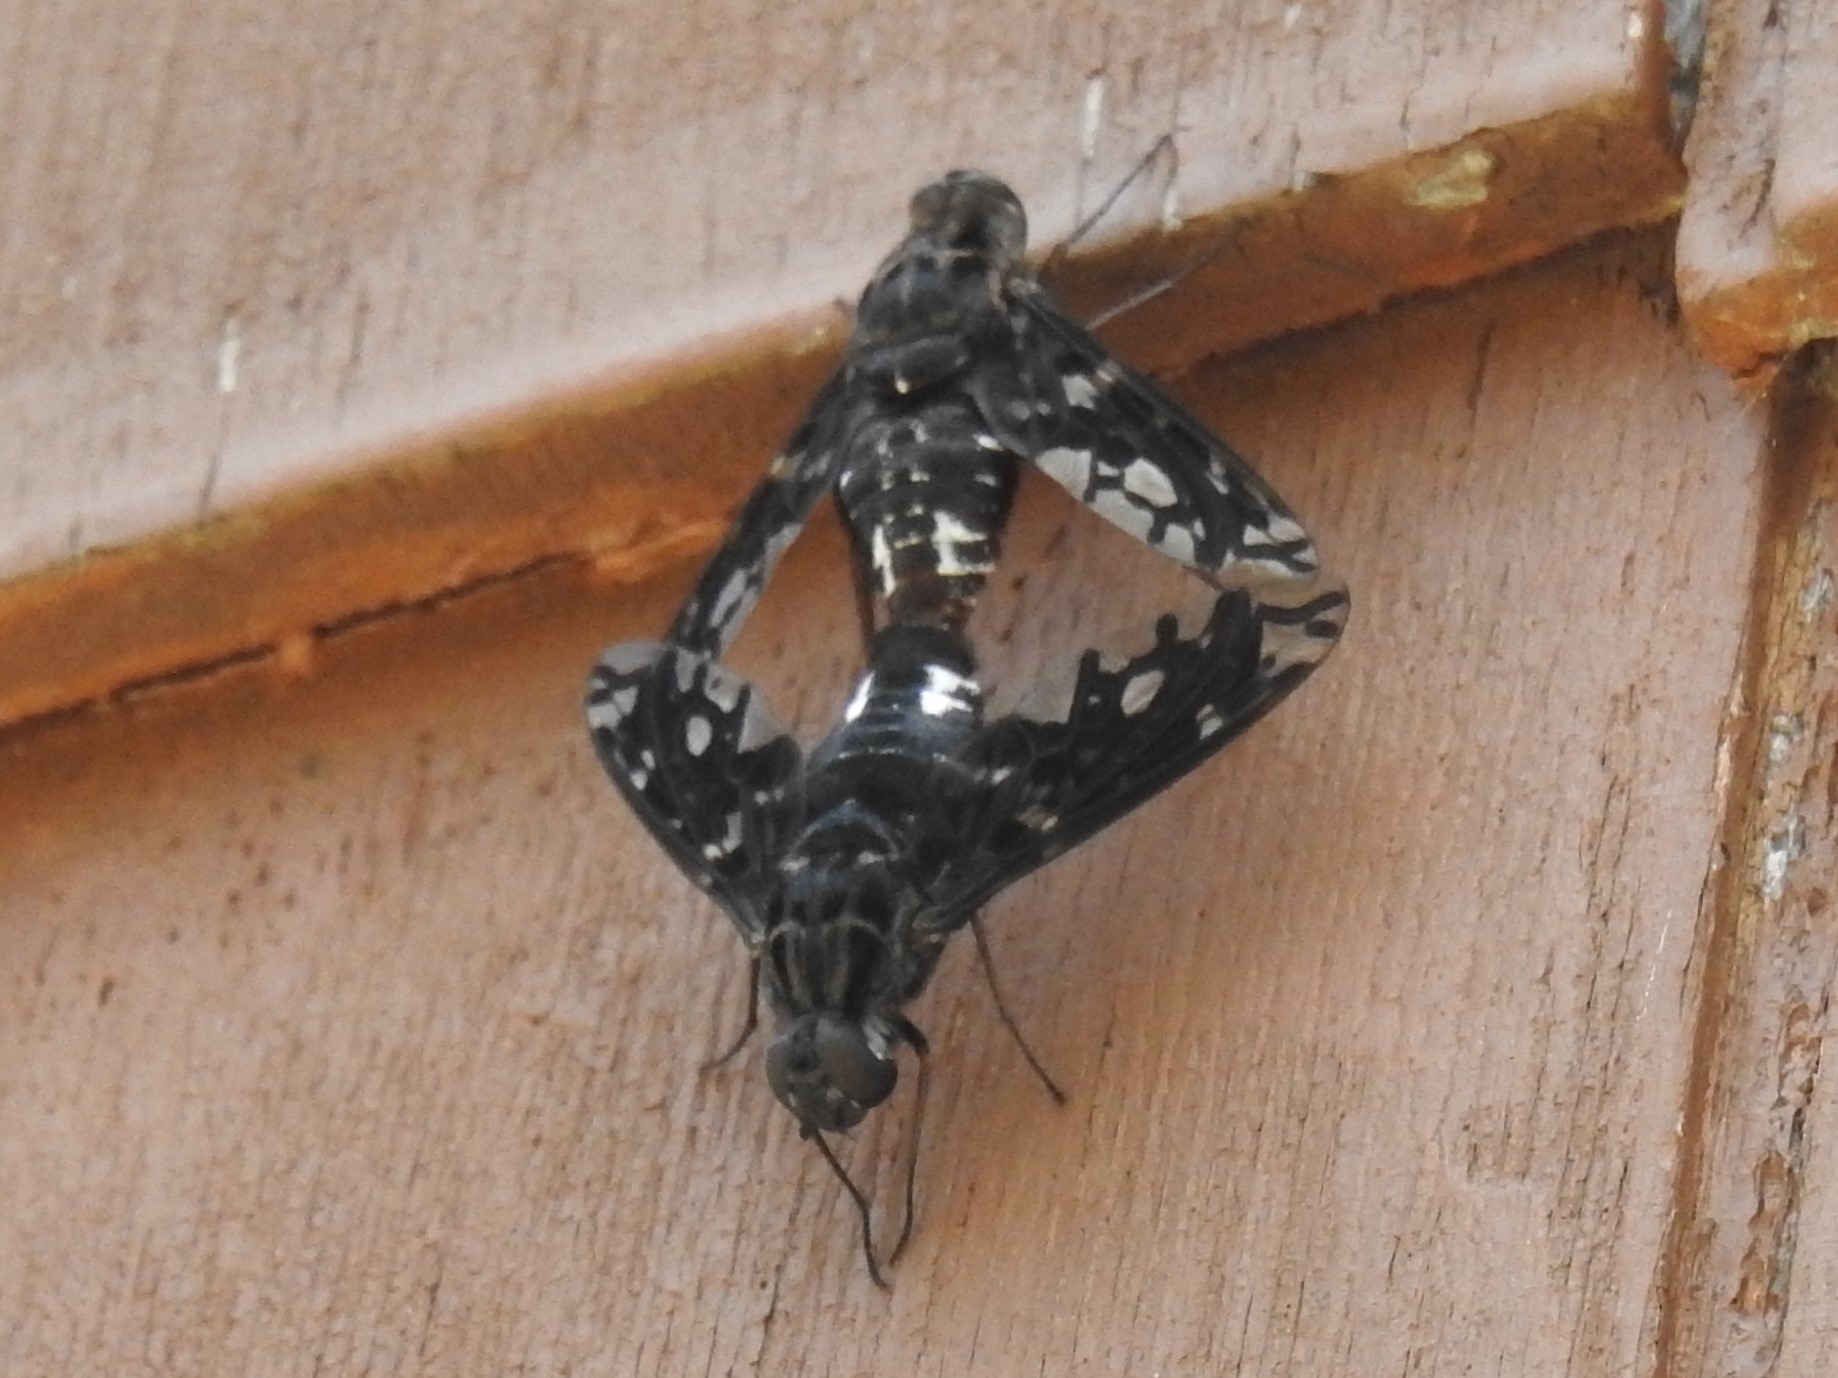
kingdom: Animalia
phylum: Arthropoda
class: Insecta
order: Diptera
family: Bombyliidae
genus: Xenox
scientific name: Xenox tigrinus
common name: Tiger bee fly
